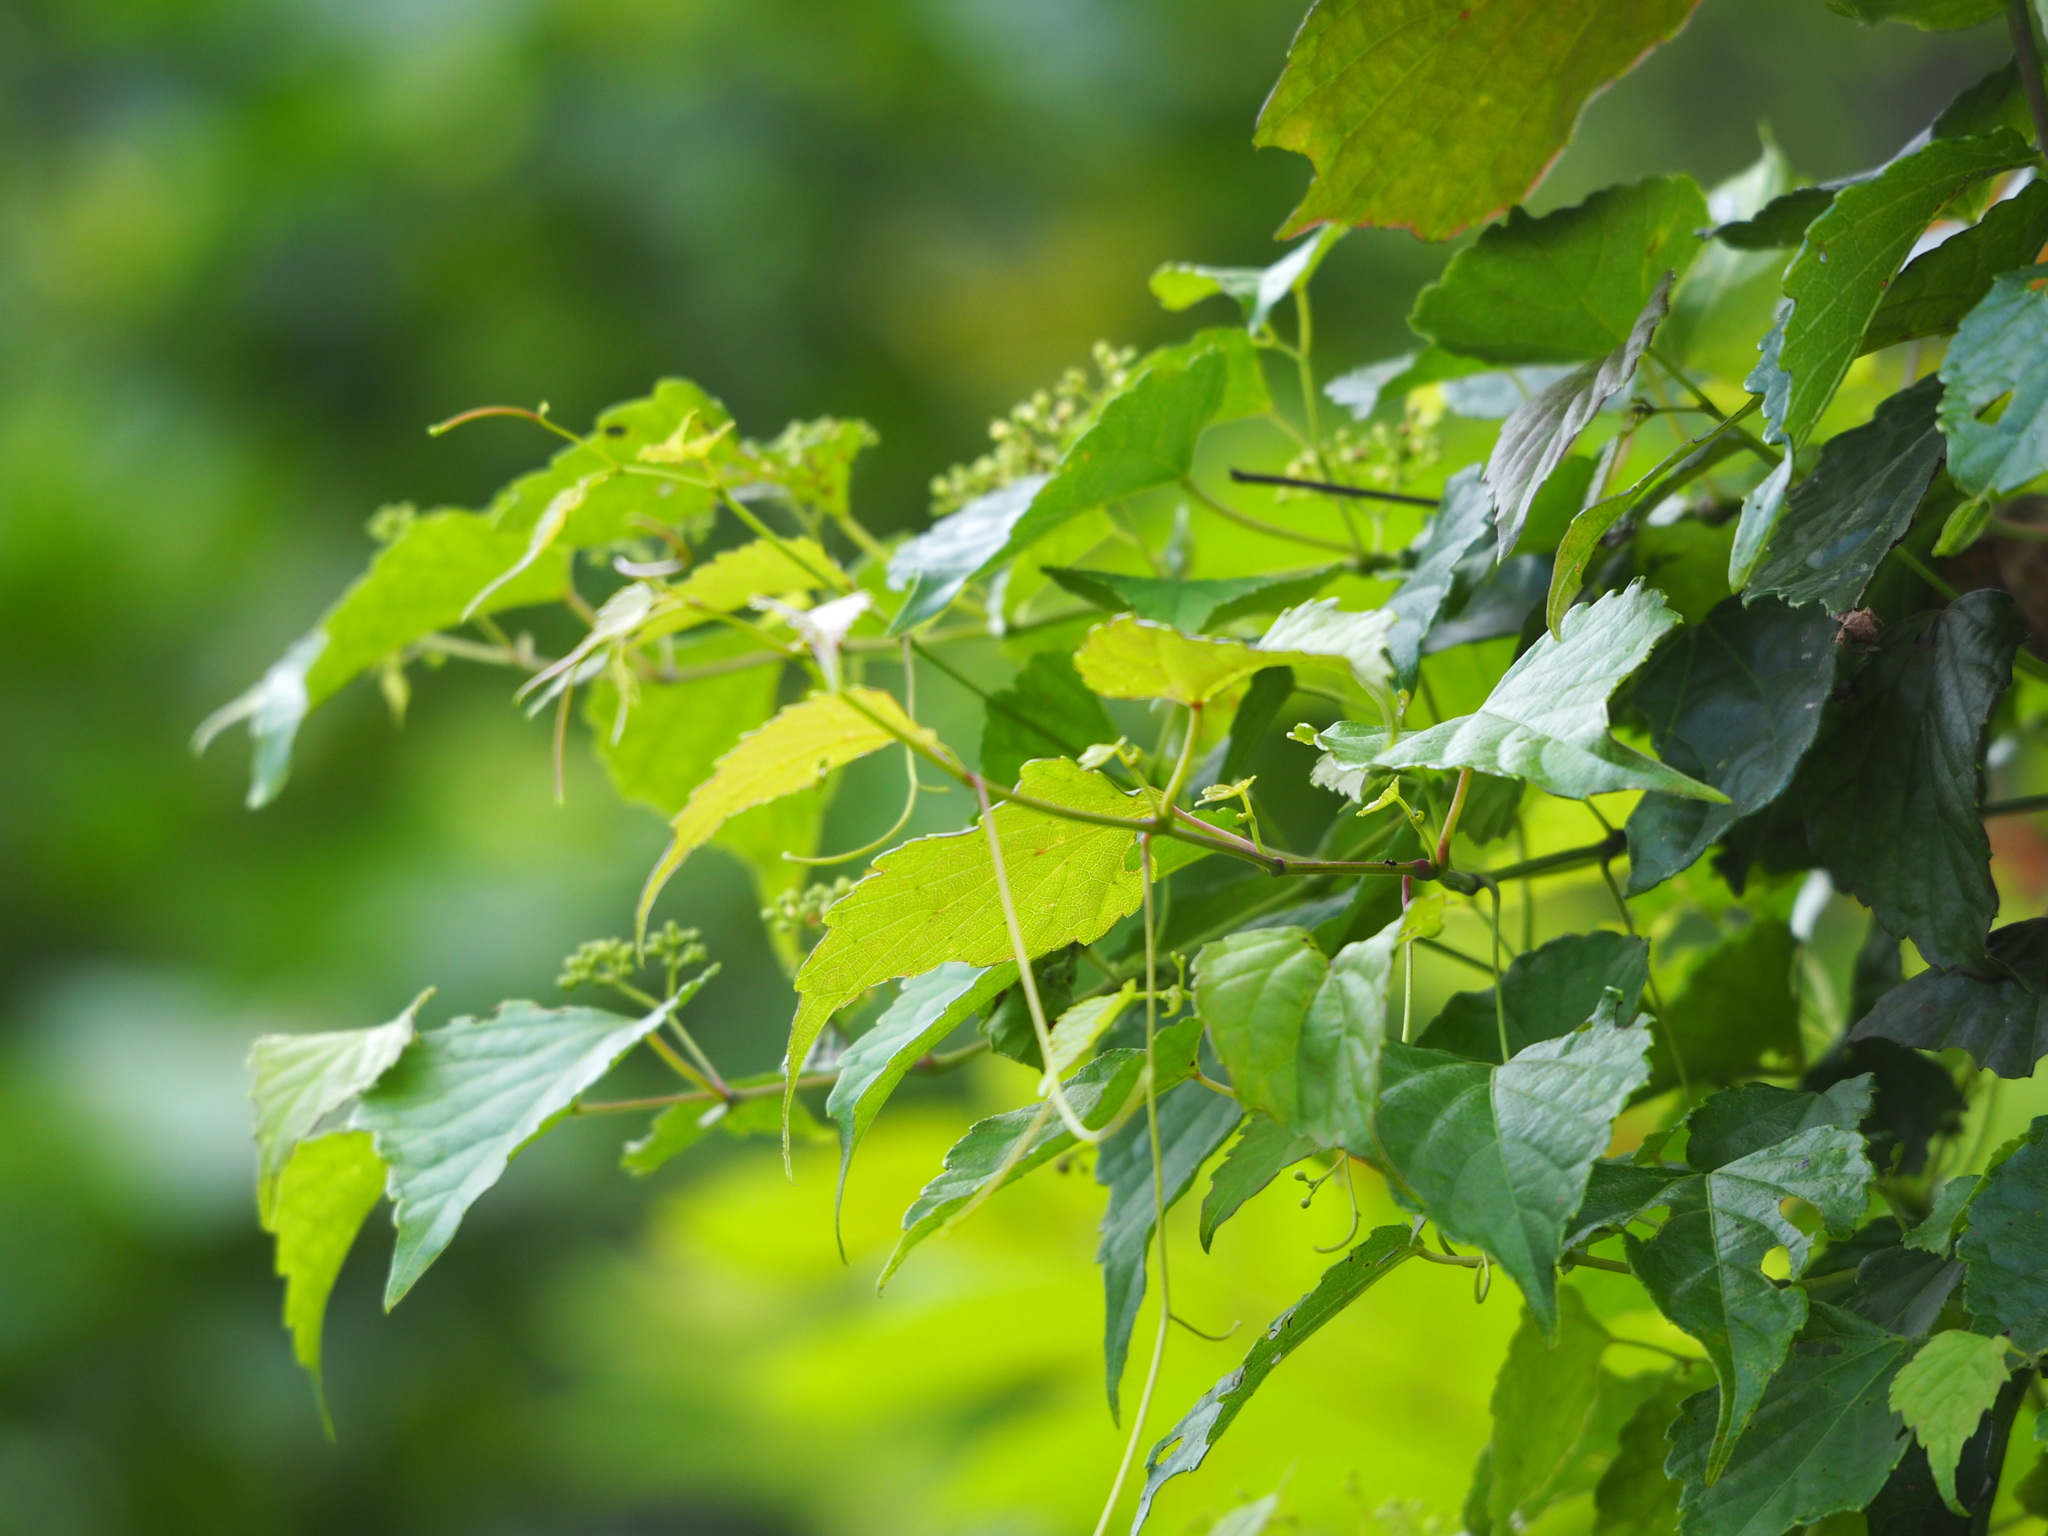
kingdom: Plantae
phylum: Tracheophyta
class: Magnoliopsida
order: Vitales
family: Vitaceae
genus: Ampelopsis
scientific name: Ampelopsis glandulosa
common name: Amur peppervine
